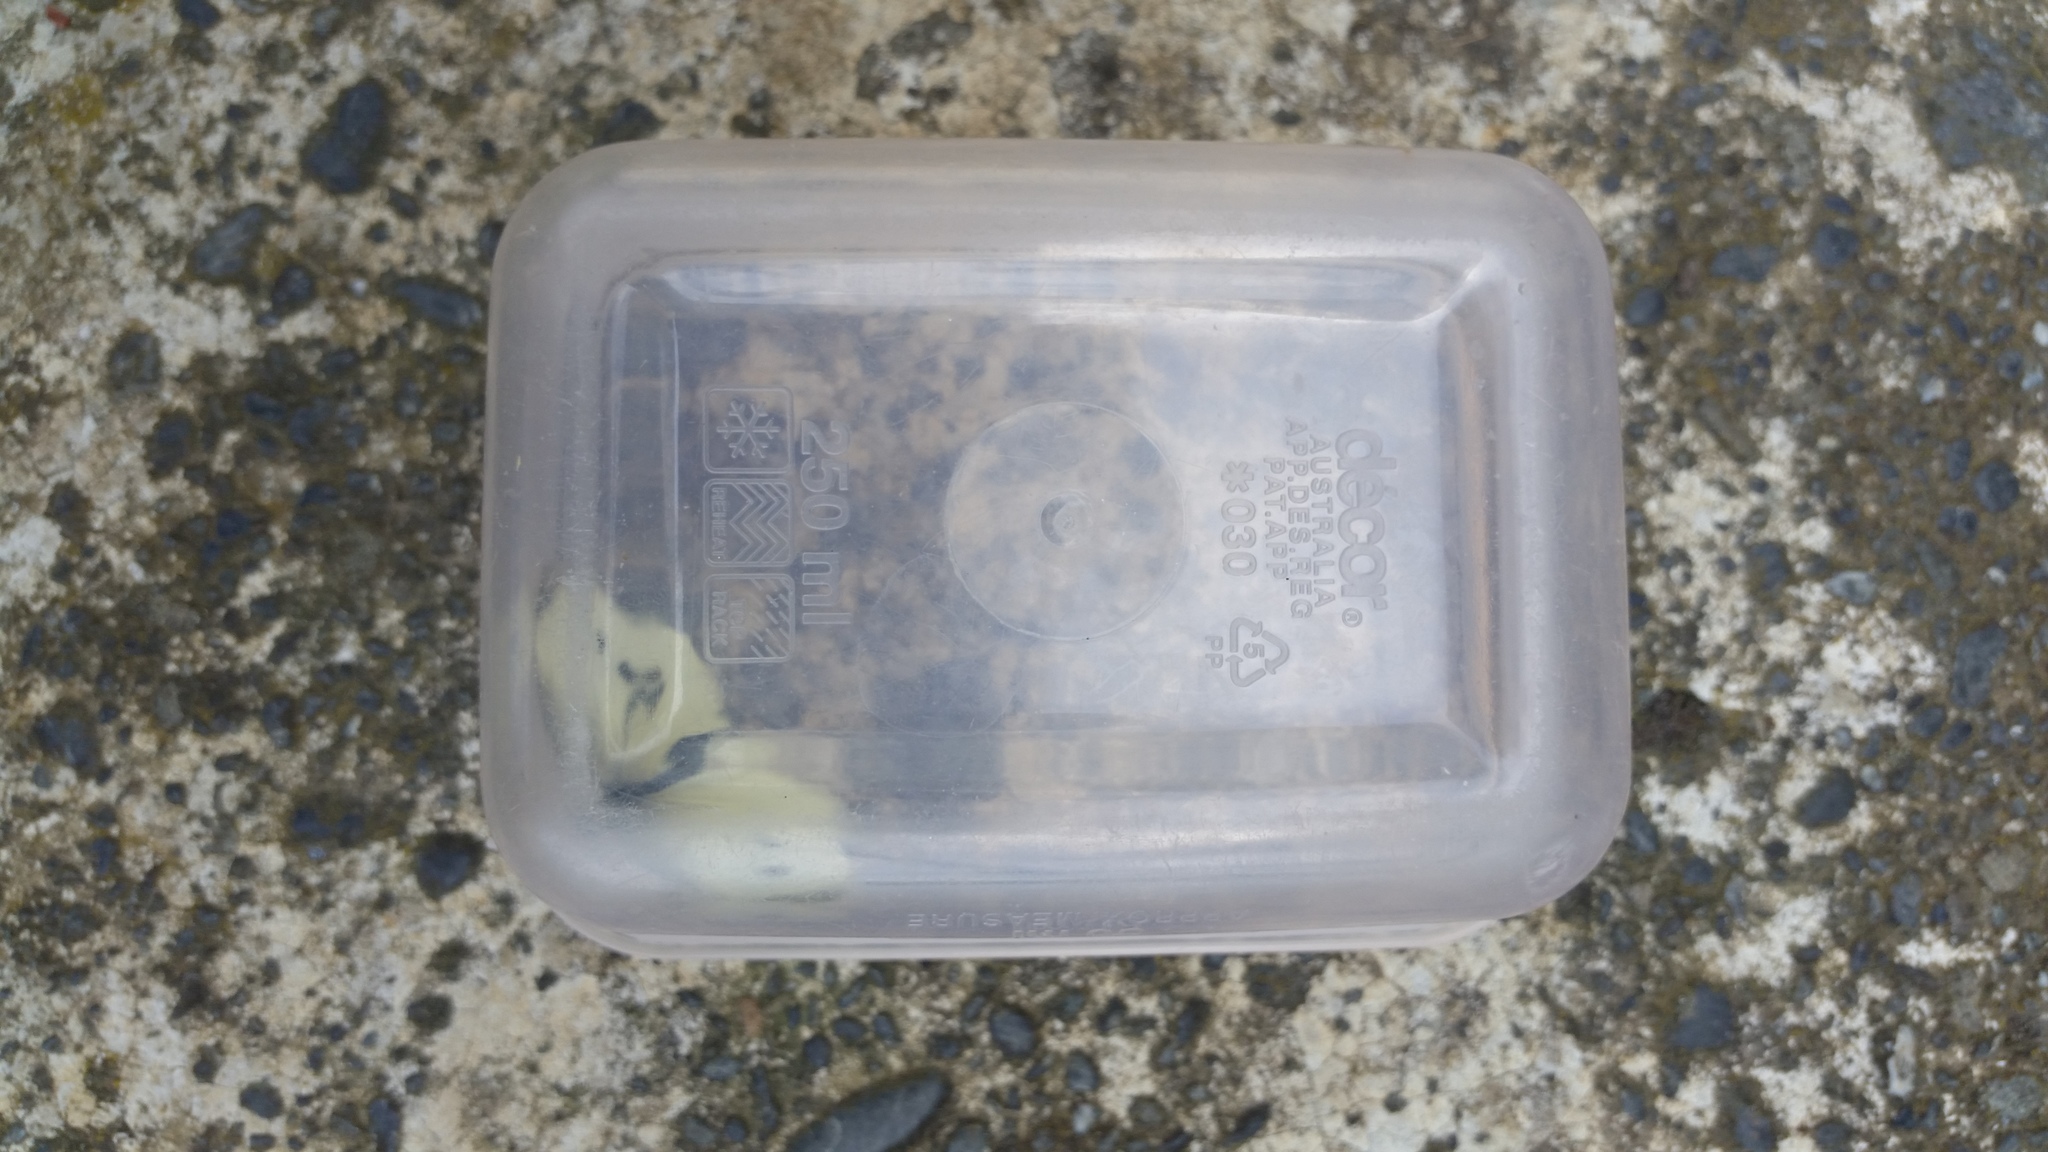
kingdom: Animalia
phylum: Arthropoda
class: Insecta
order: Lepidoptera
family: Pieridae
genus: Pieris
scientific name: Pieris rapae
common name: Small white
